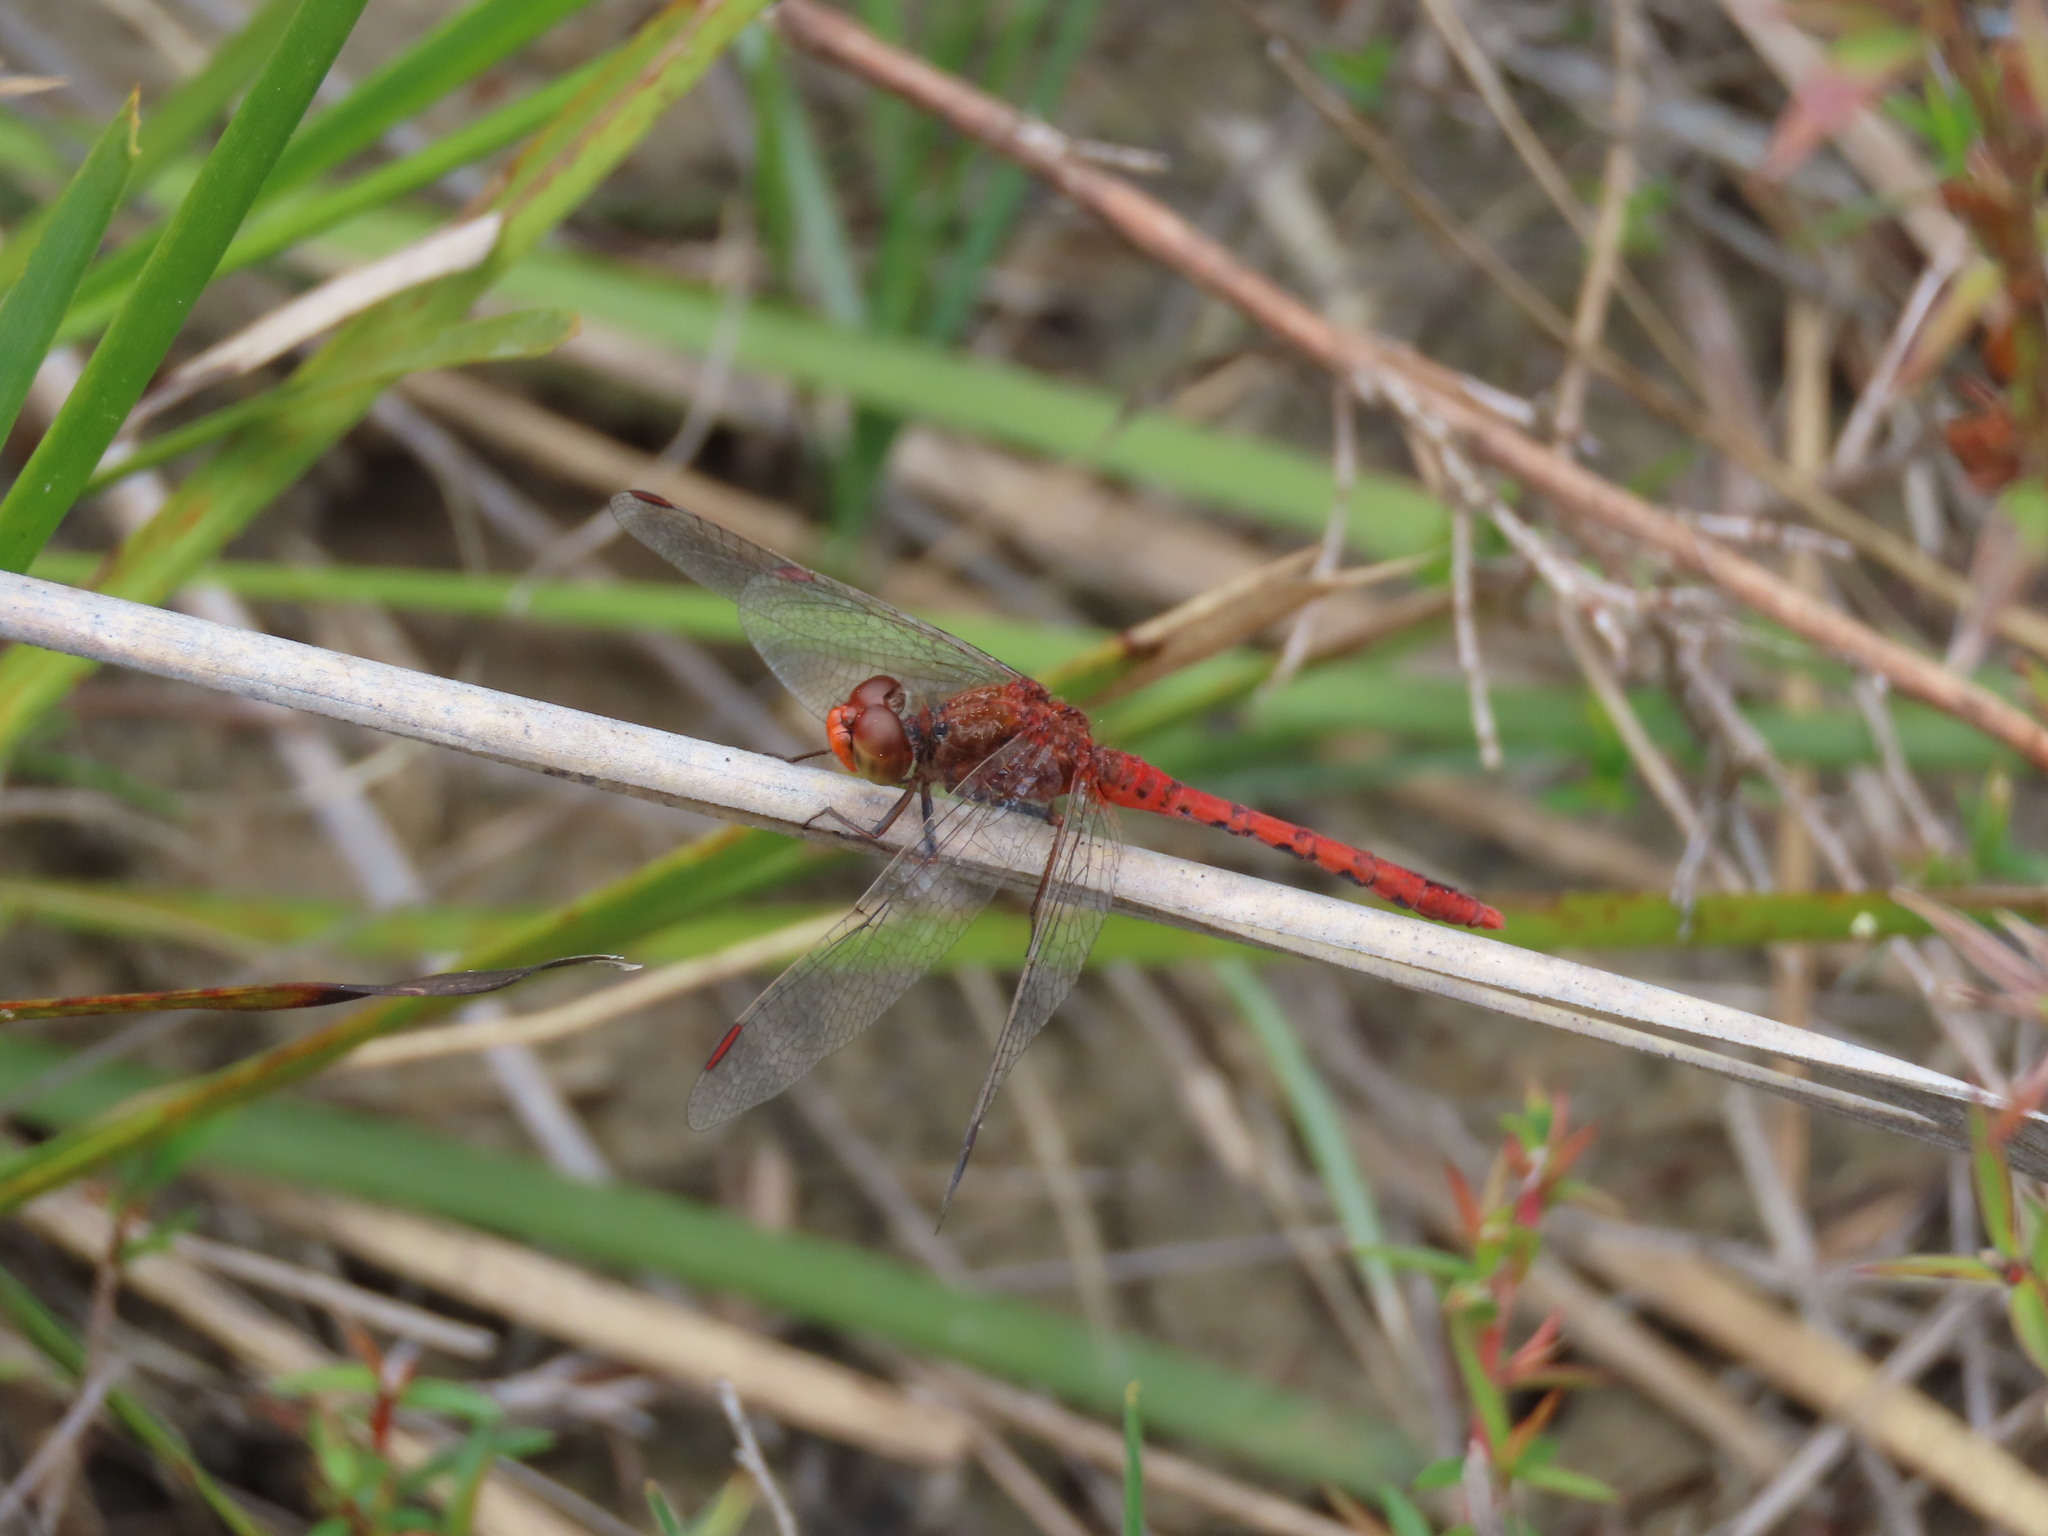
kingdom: Animalia
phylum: Arthropoda
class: Insecta
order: Odonata
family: Libellulidae
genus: Diplacodes
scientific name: Diplacodes bipunctata
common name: Red percher dragonfly
